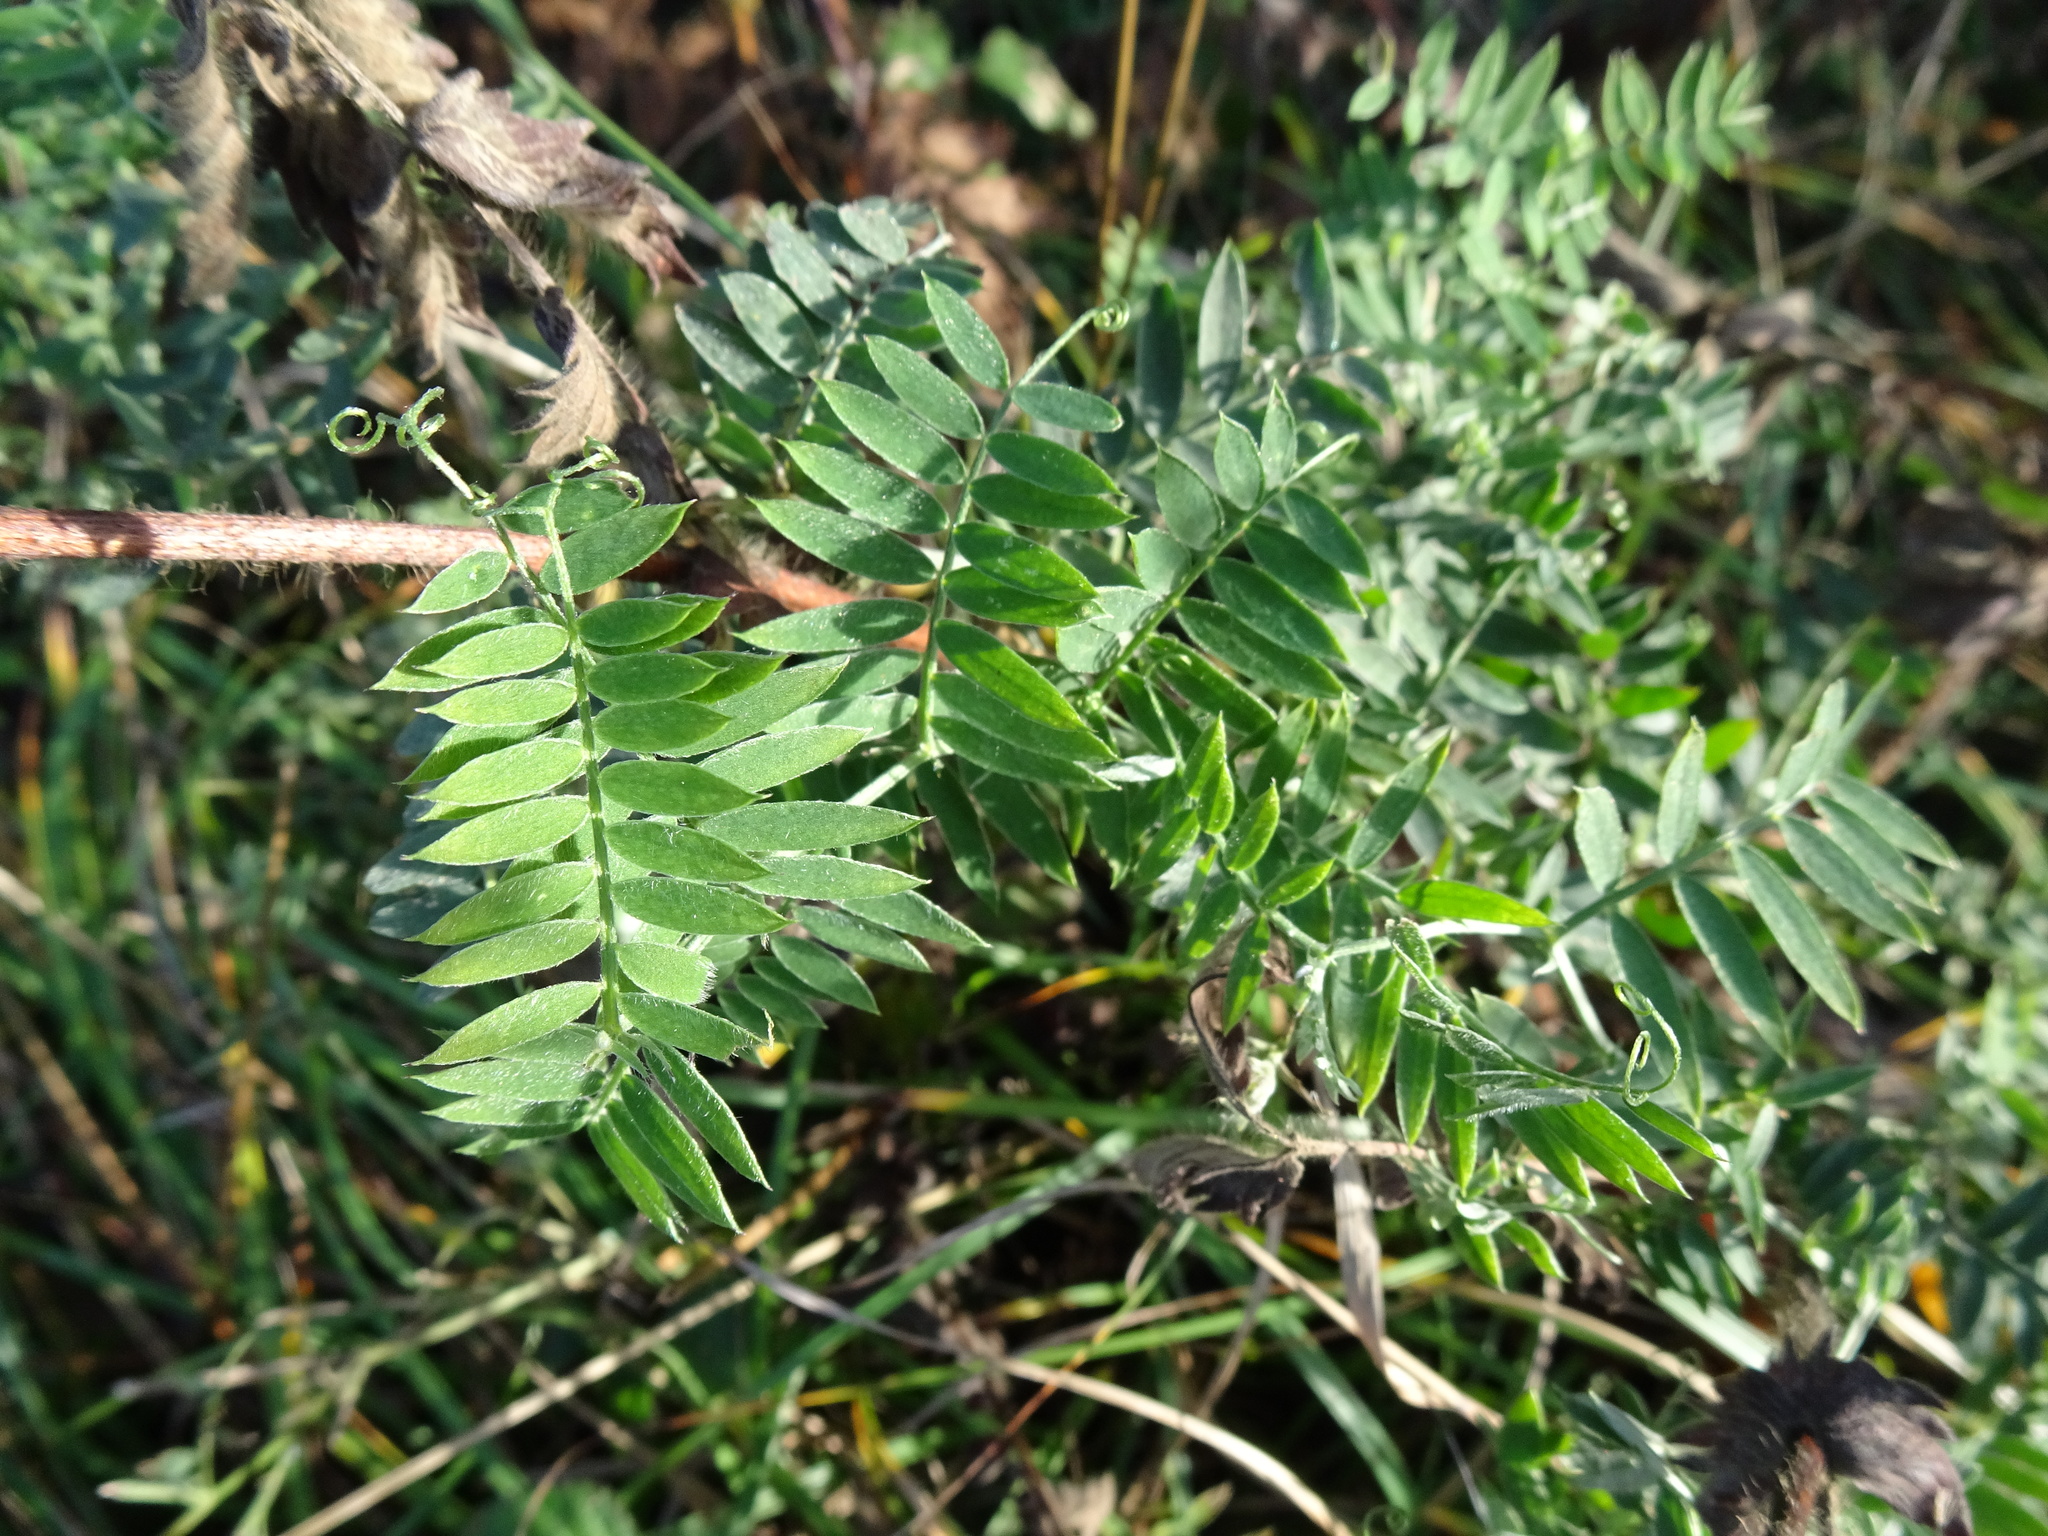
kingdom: Plantae
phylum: Tracheophyta
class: Magnoliopsida
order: Fabales
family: Fabaceae
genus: Vicia
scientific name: Vicia cracca
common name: Bird vetch
